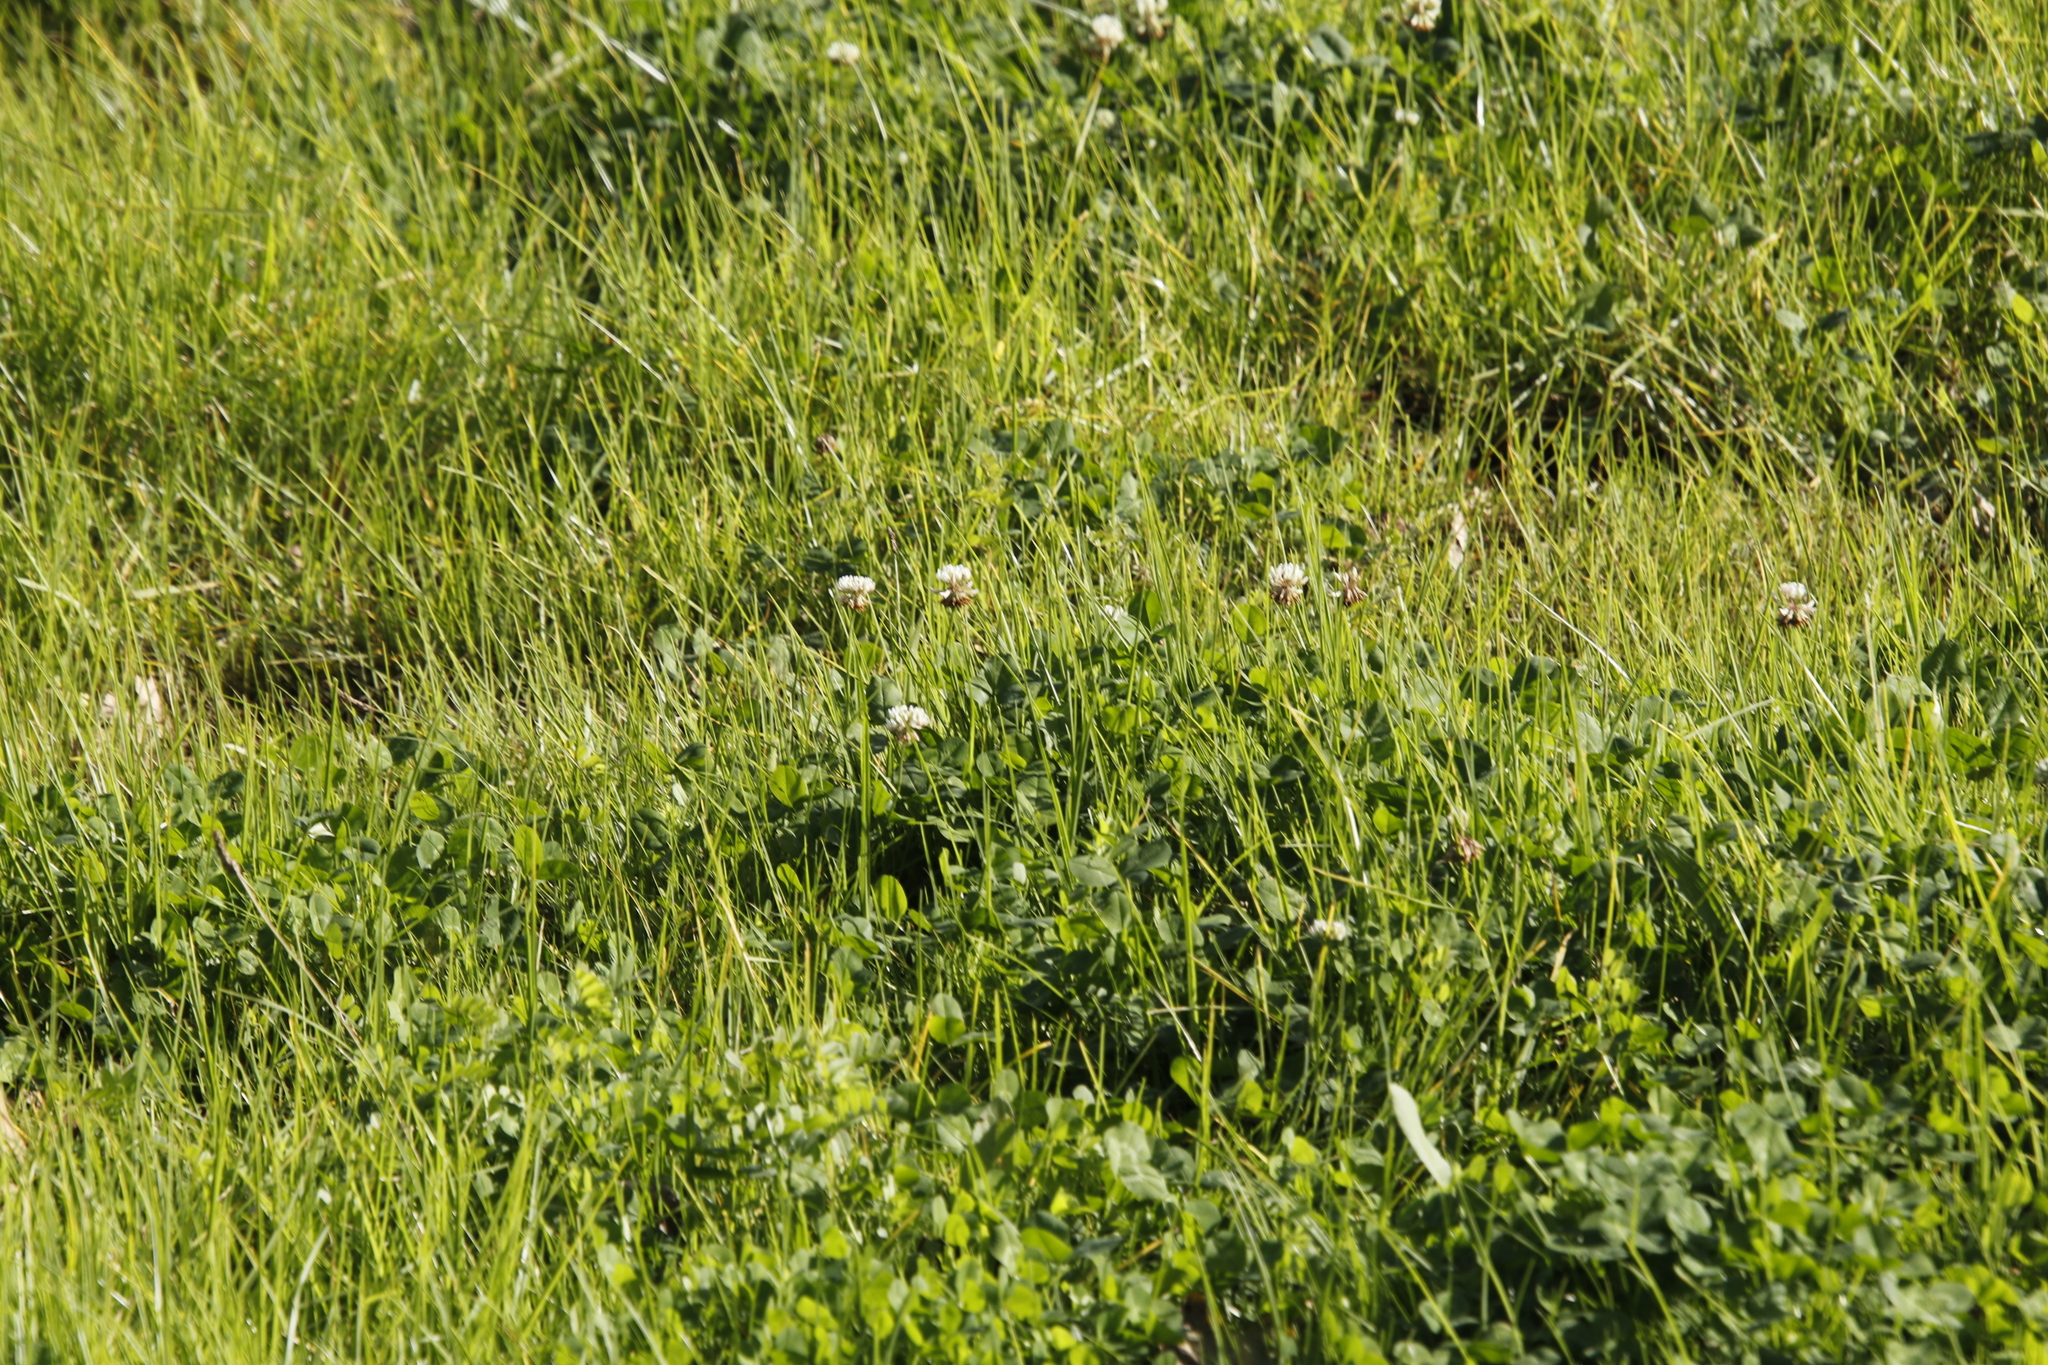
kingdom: Plantae
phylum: Tracheophyta
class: Magnoliopsida
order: Fabales
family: Fabaceae
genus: Trifolium
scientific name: Trifolium repens
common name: White clover
